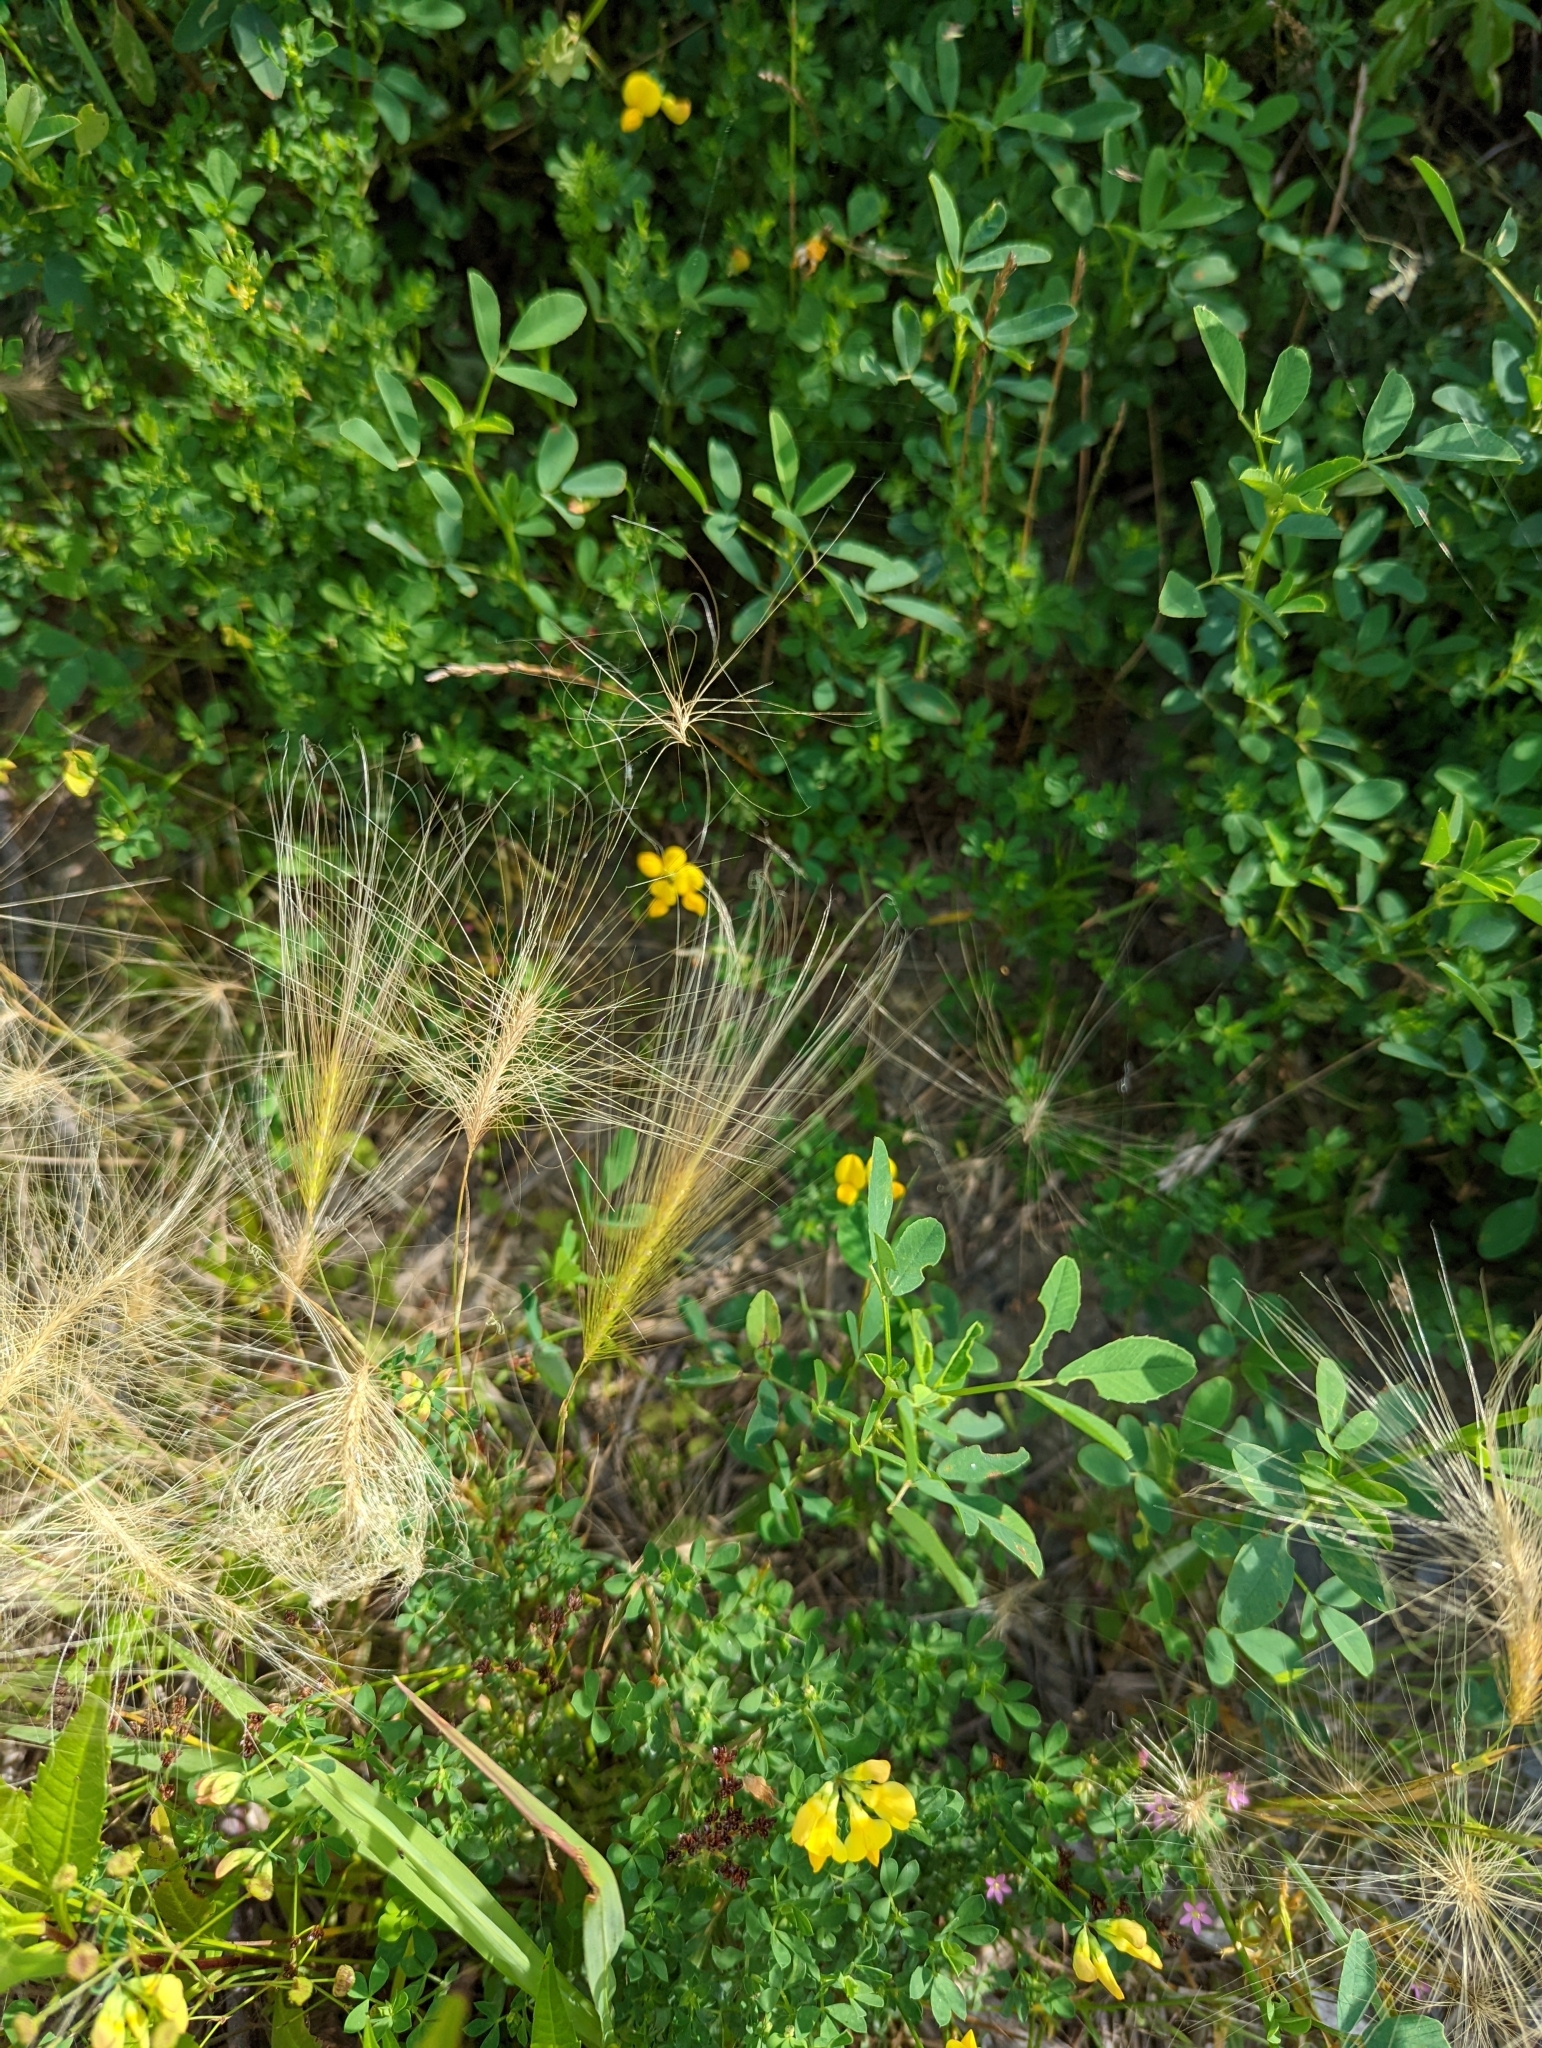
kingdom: Plantae
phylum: Tracheophyta
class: Liliopsida
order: Poales
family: Poaceae
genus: Hordeum
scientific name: Hordeum jubatum
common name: Foxtail barley
